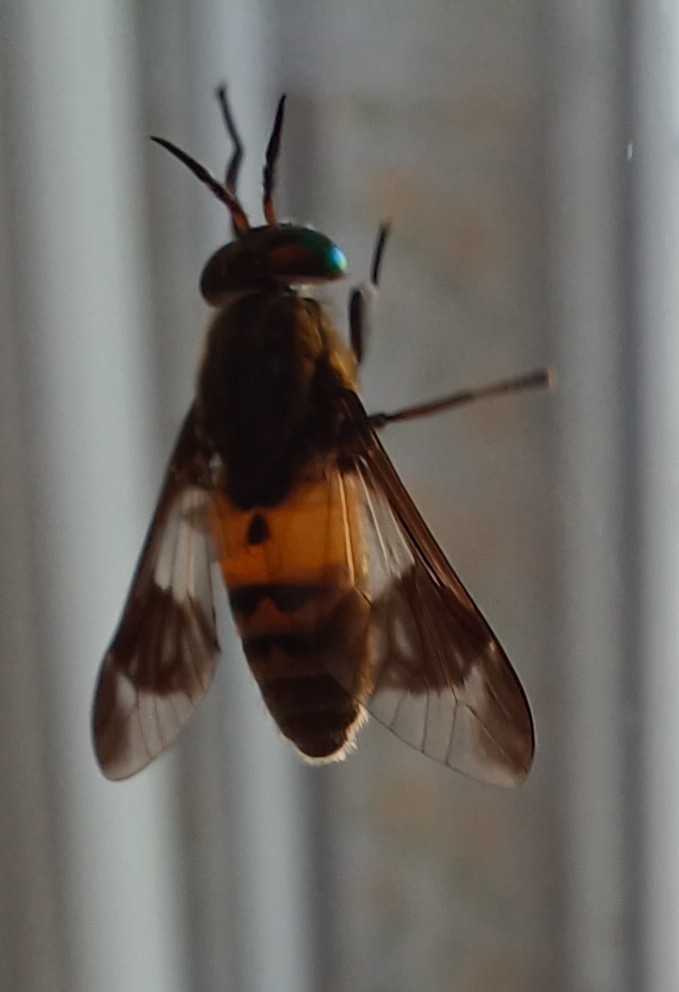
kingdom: Animalia
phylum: Arthropoda
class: Insecta
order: Diptera
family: Tabanidae
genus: Chrysops
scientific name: Chrysops viduatus
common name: Square-spot deerfly
